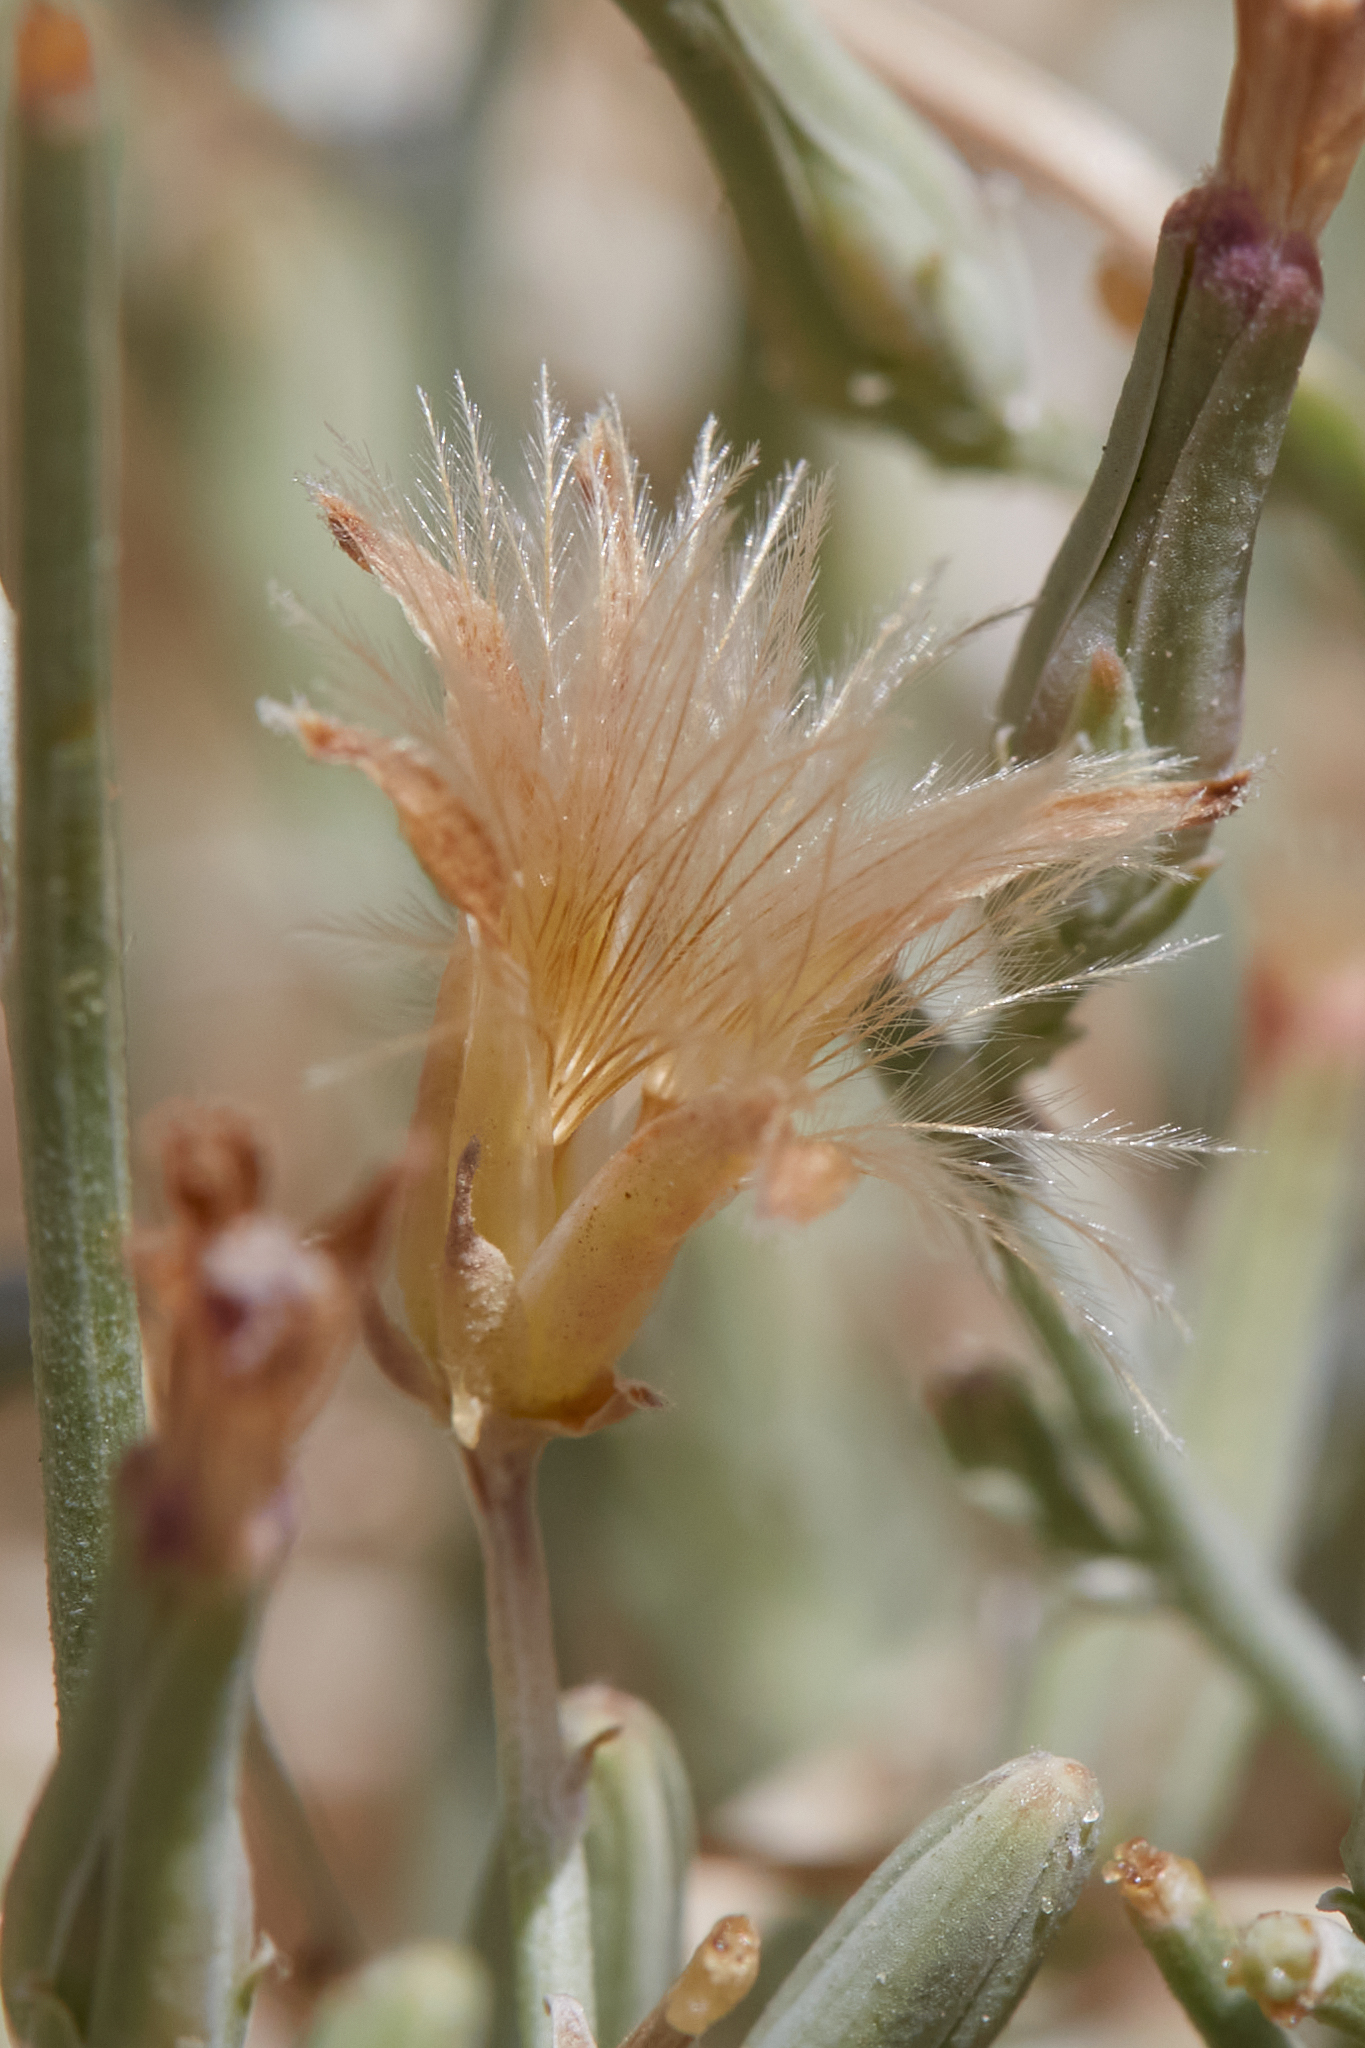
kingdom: Plantae
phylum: Tracheophyta
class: Magnoliopsida
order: Asterales
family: Asteraceae
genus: Stephanomeria
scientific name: Stephanomeria pauciflora
